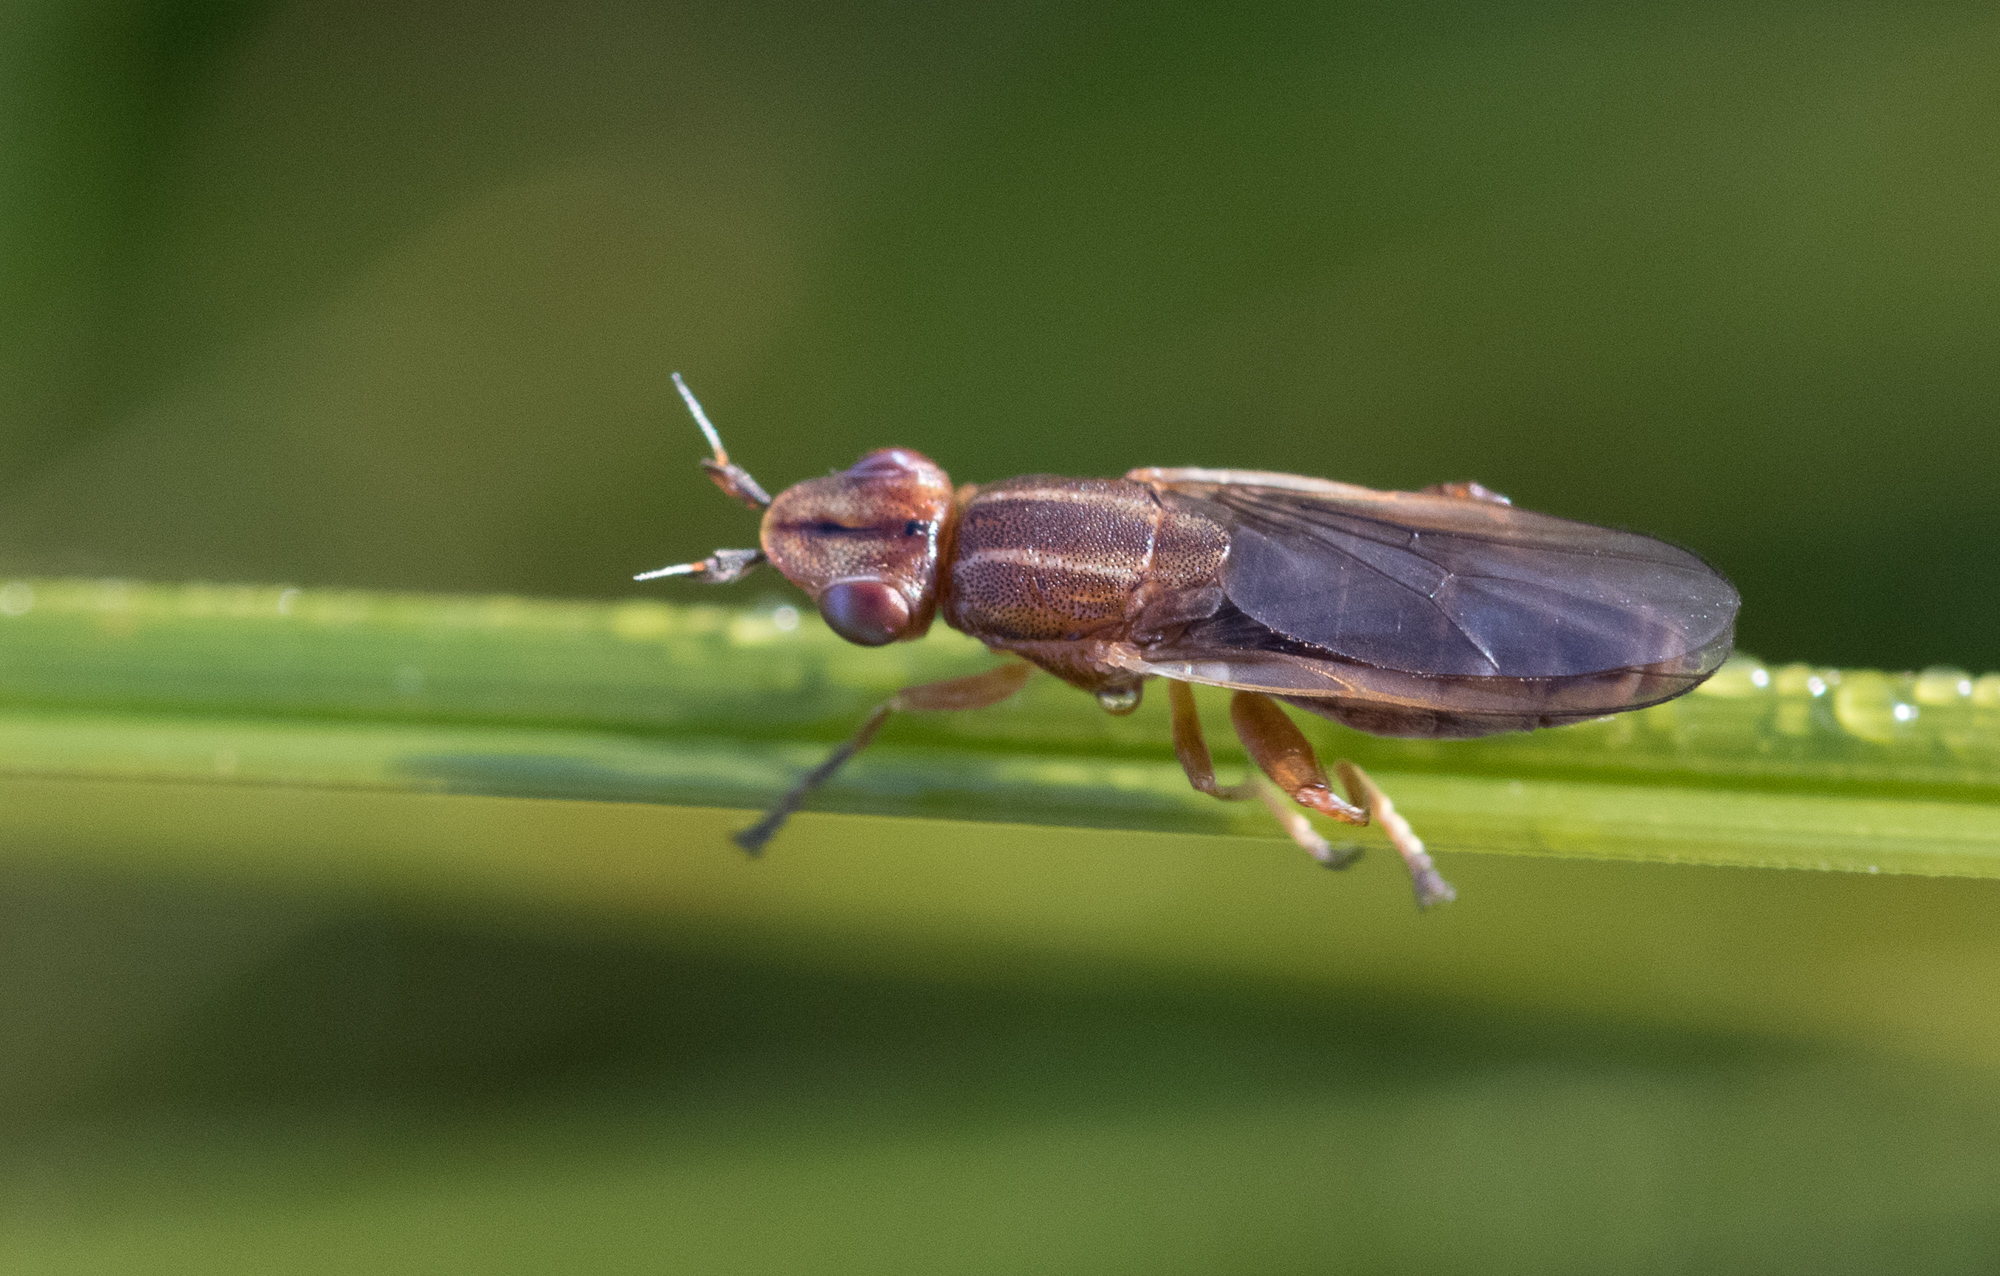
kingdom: Animalia
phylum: Arthropoda
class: Insecta
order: Diptera
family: Chloropidae
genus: Platycephala
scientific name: Platycephala planifrons
